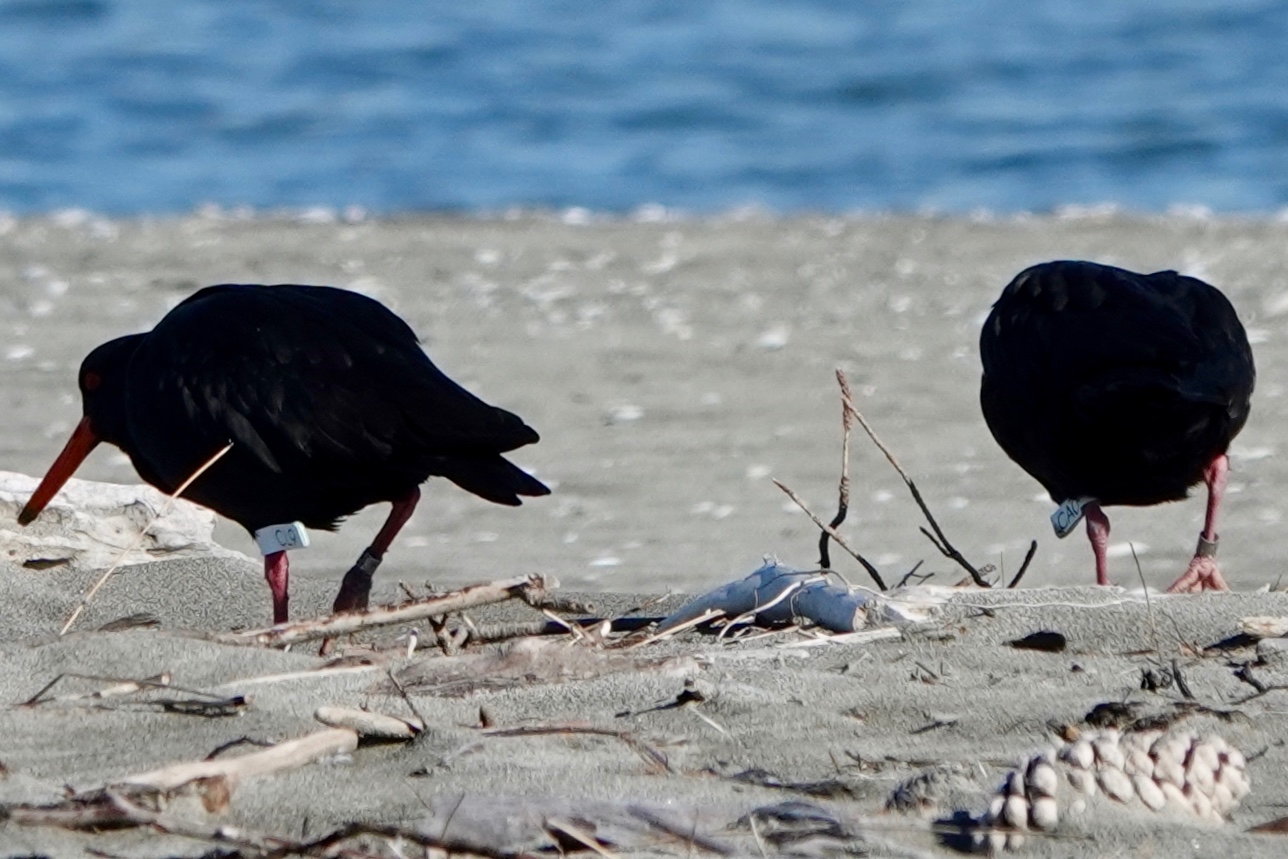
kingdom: Animalia
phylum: Chordata
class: Aves
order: Charadriiformes
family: Haematopodidae
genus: Haematopus
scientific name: Haematopus unicolor
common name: Variable oystercatcher
